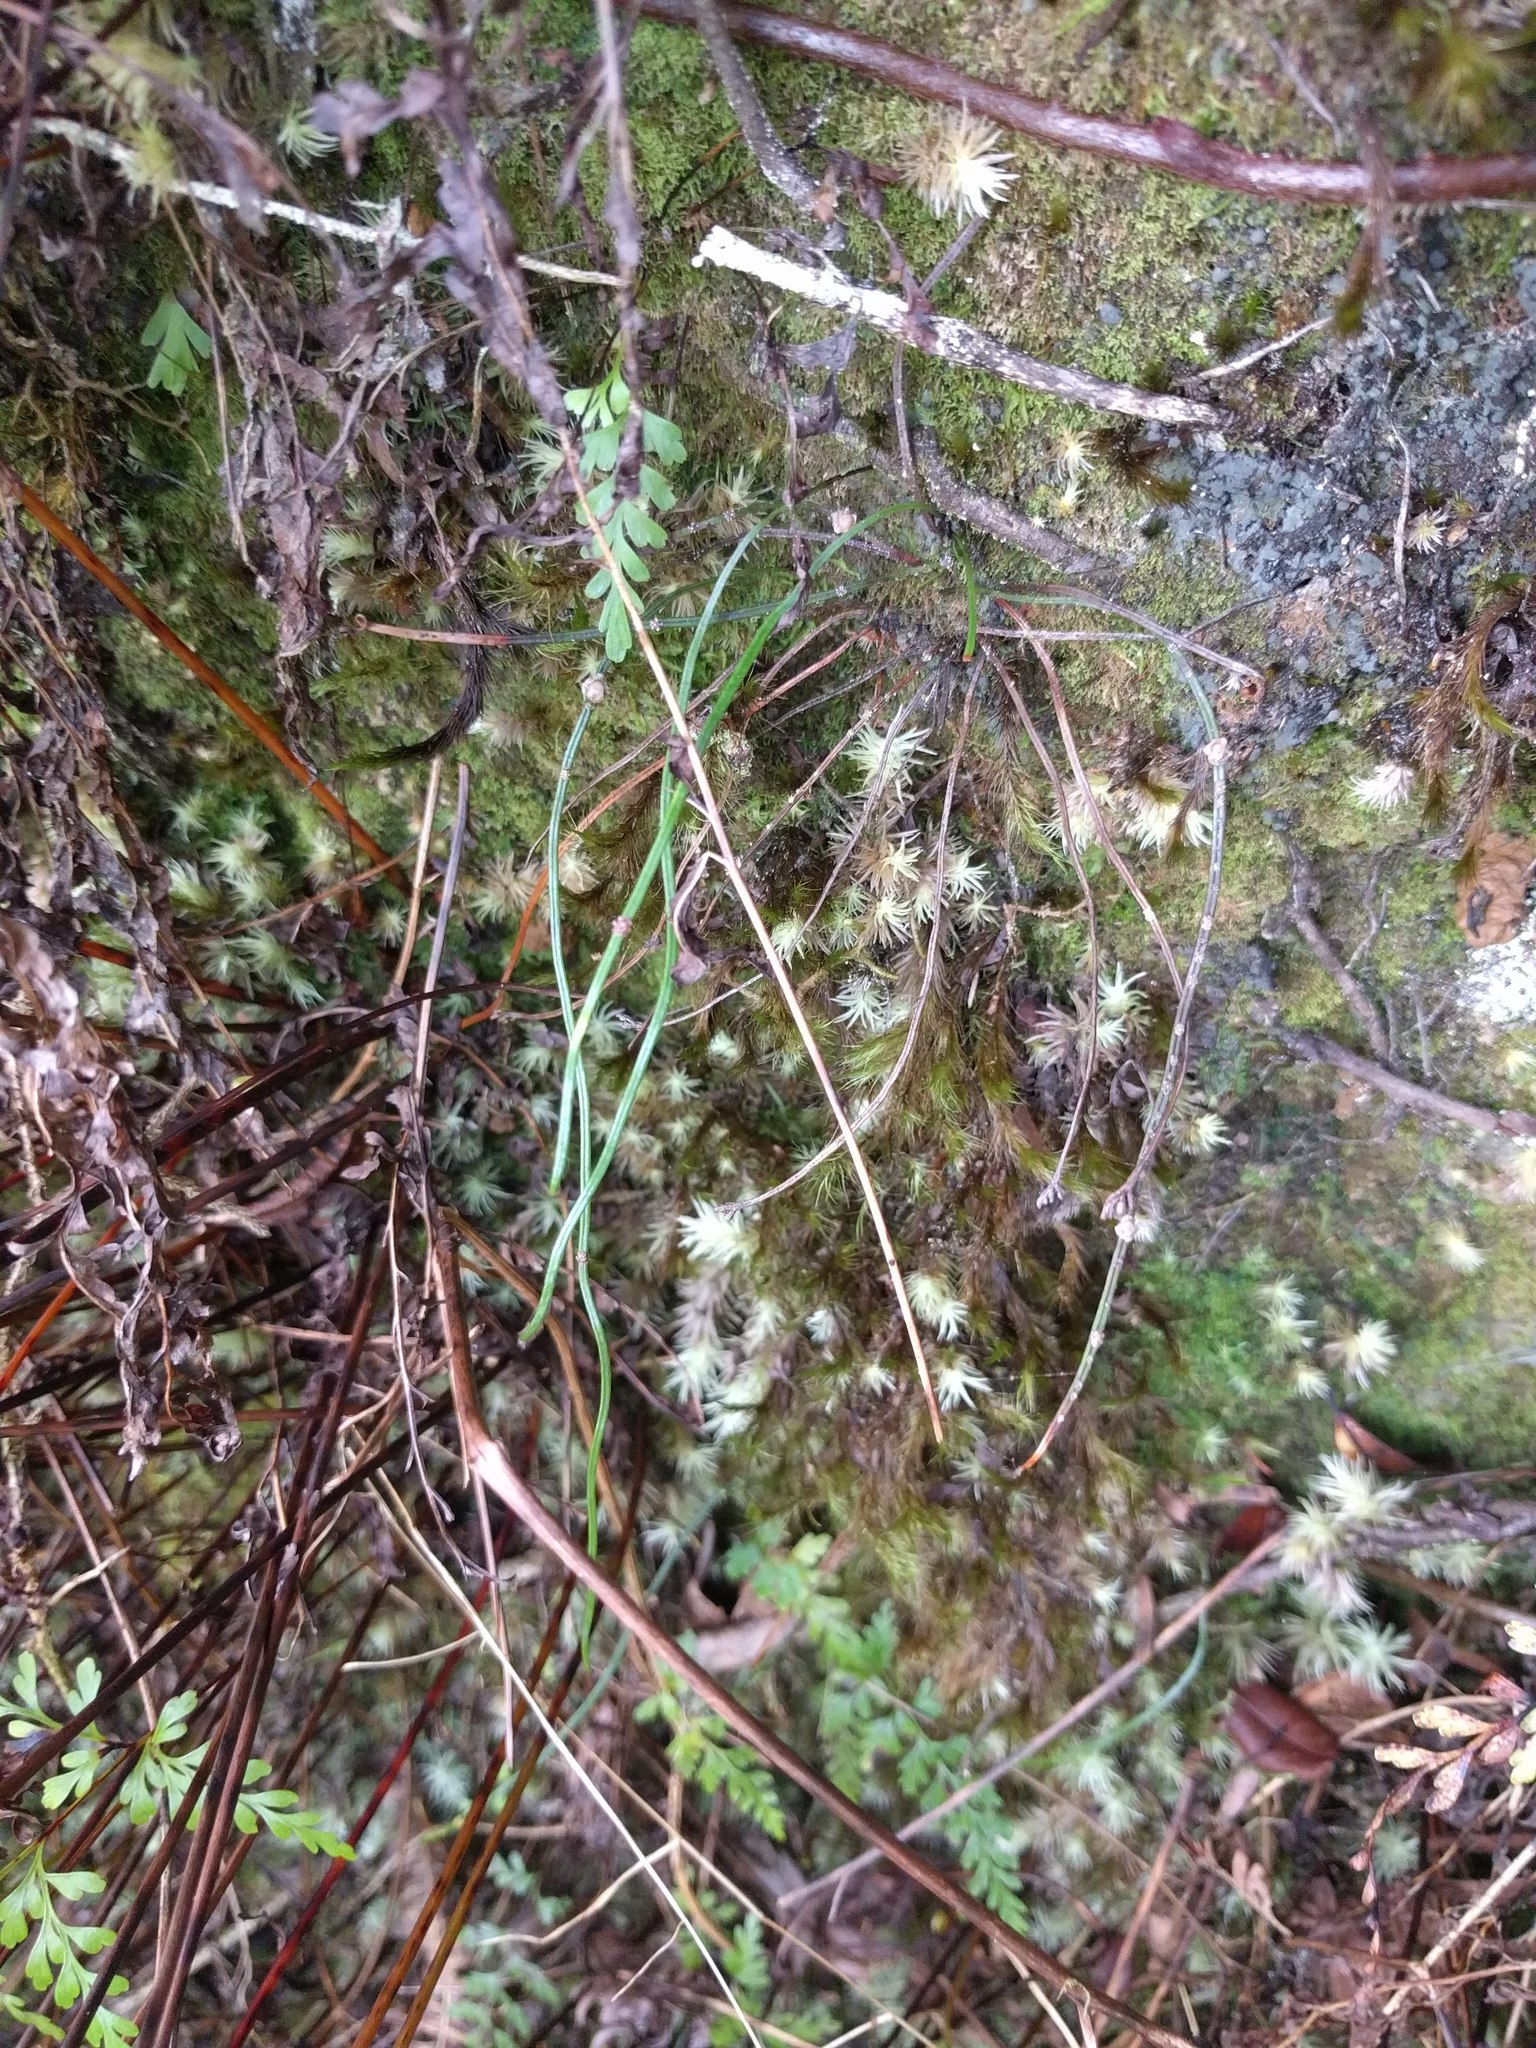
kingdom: Plantae
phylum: Tracheophyta
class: Polypodiopsida
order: Schizaeales
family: Schizaeaceae
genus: Microschizaea
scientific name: Microschizaea robusta
